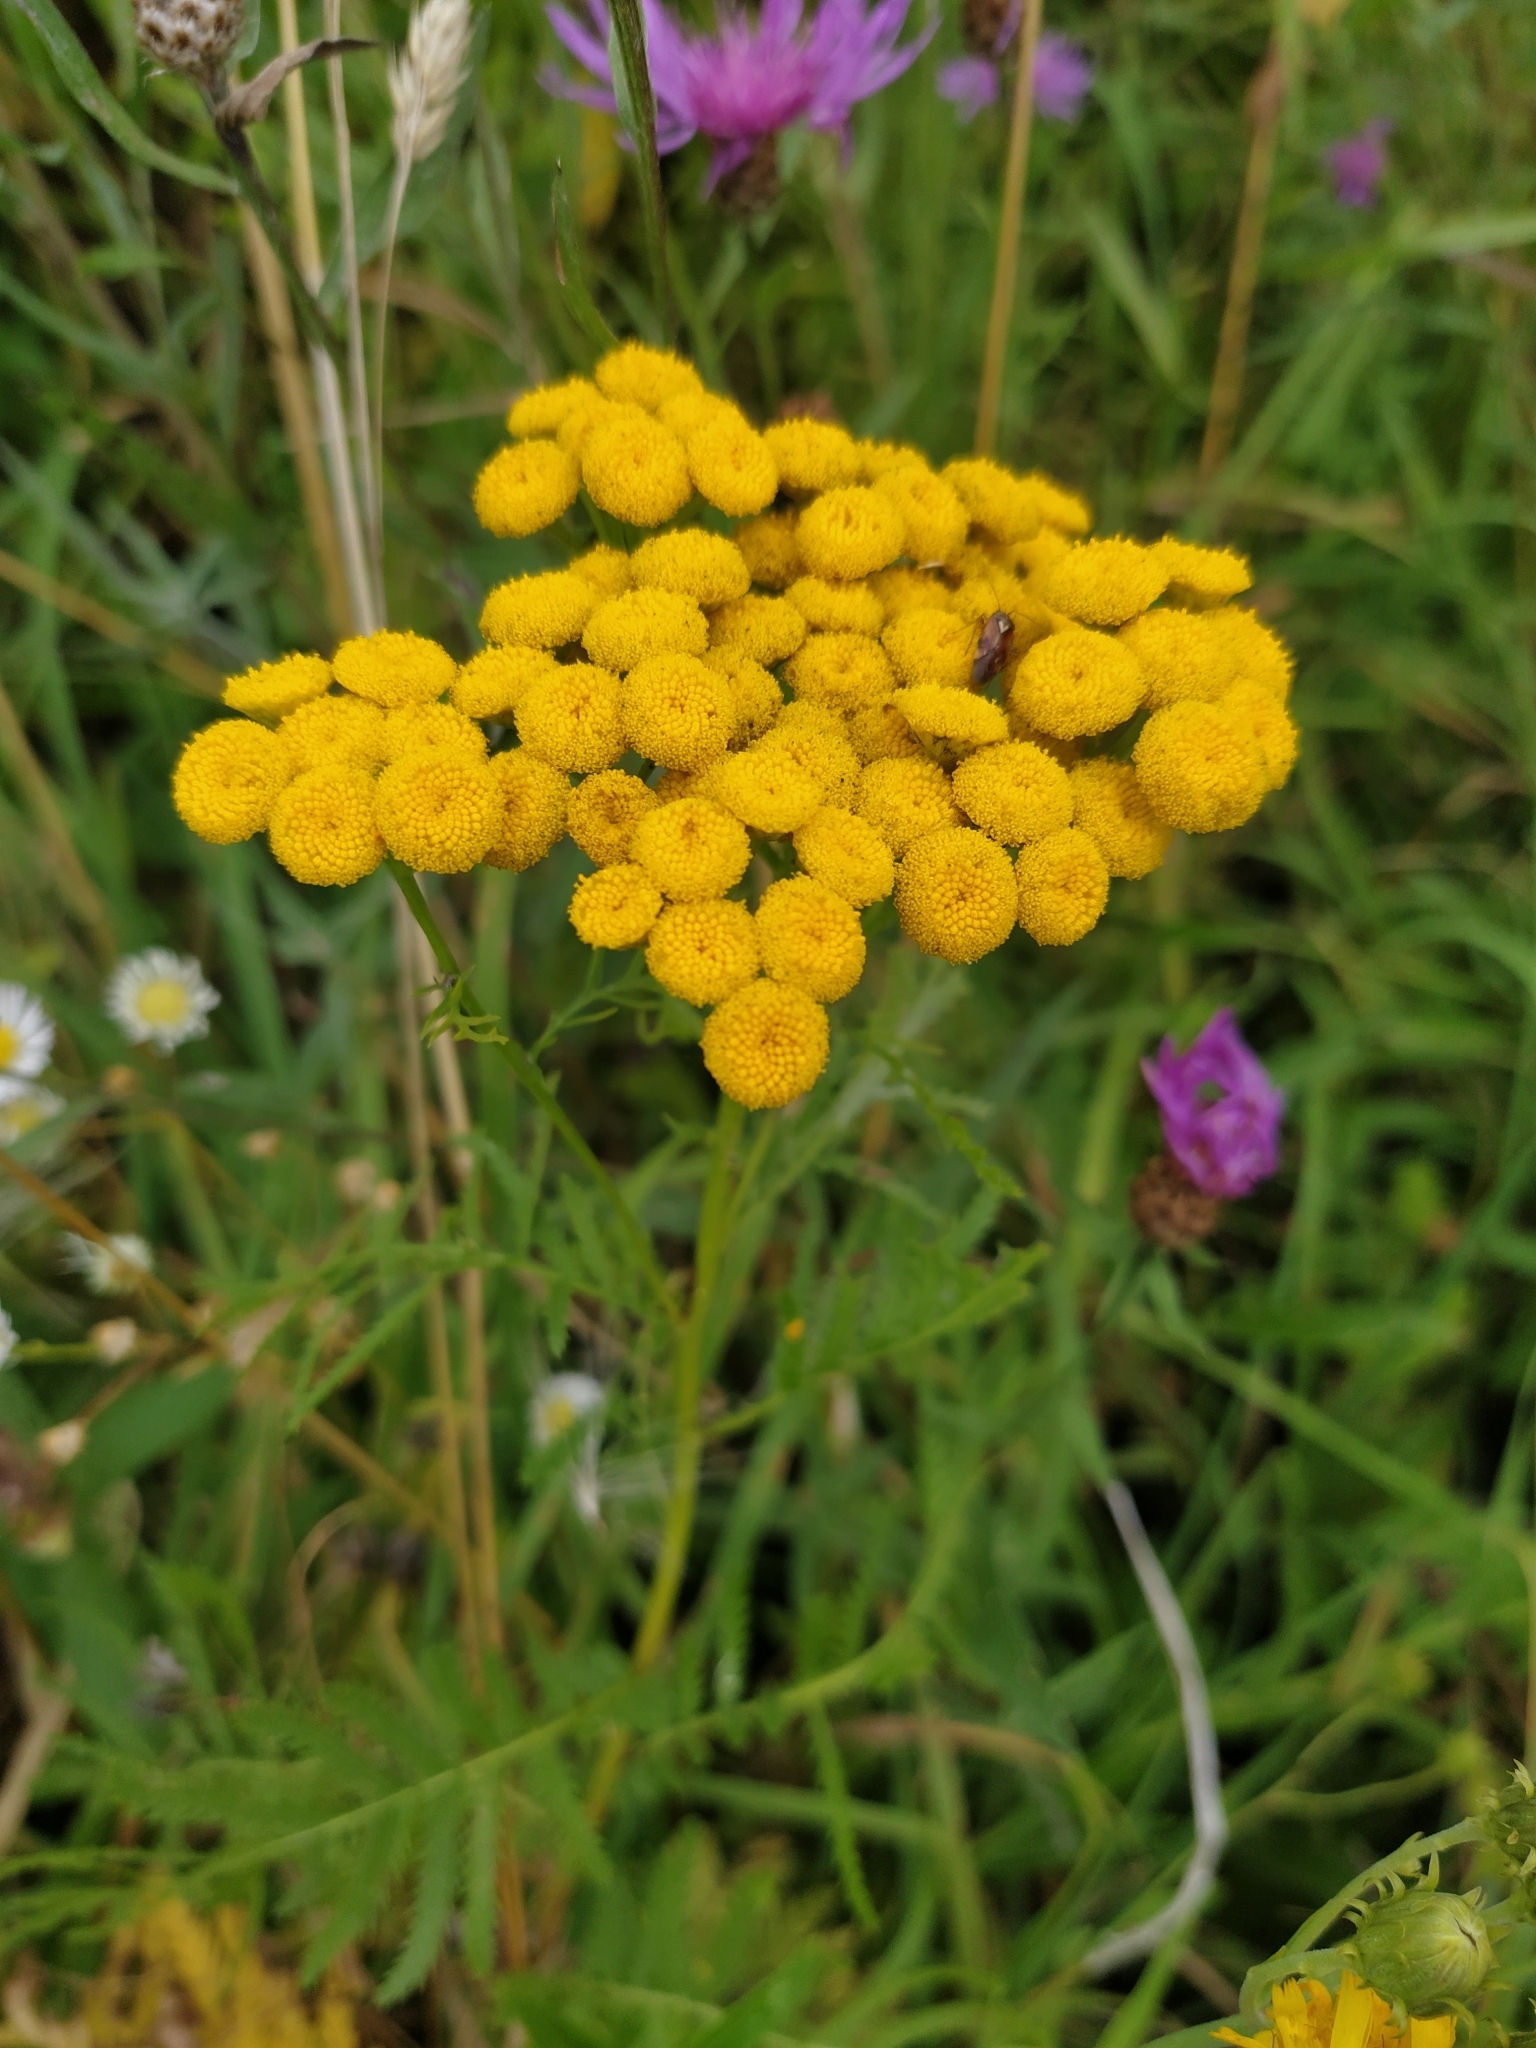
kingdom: Plantae
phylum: Tracheophyta
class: Magnoliopsida
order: Asterales
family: Asteraceae
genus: Tanacetum
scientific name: Tanacetum vulgare
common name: Common tansy
